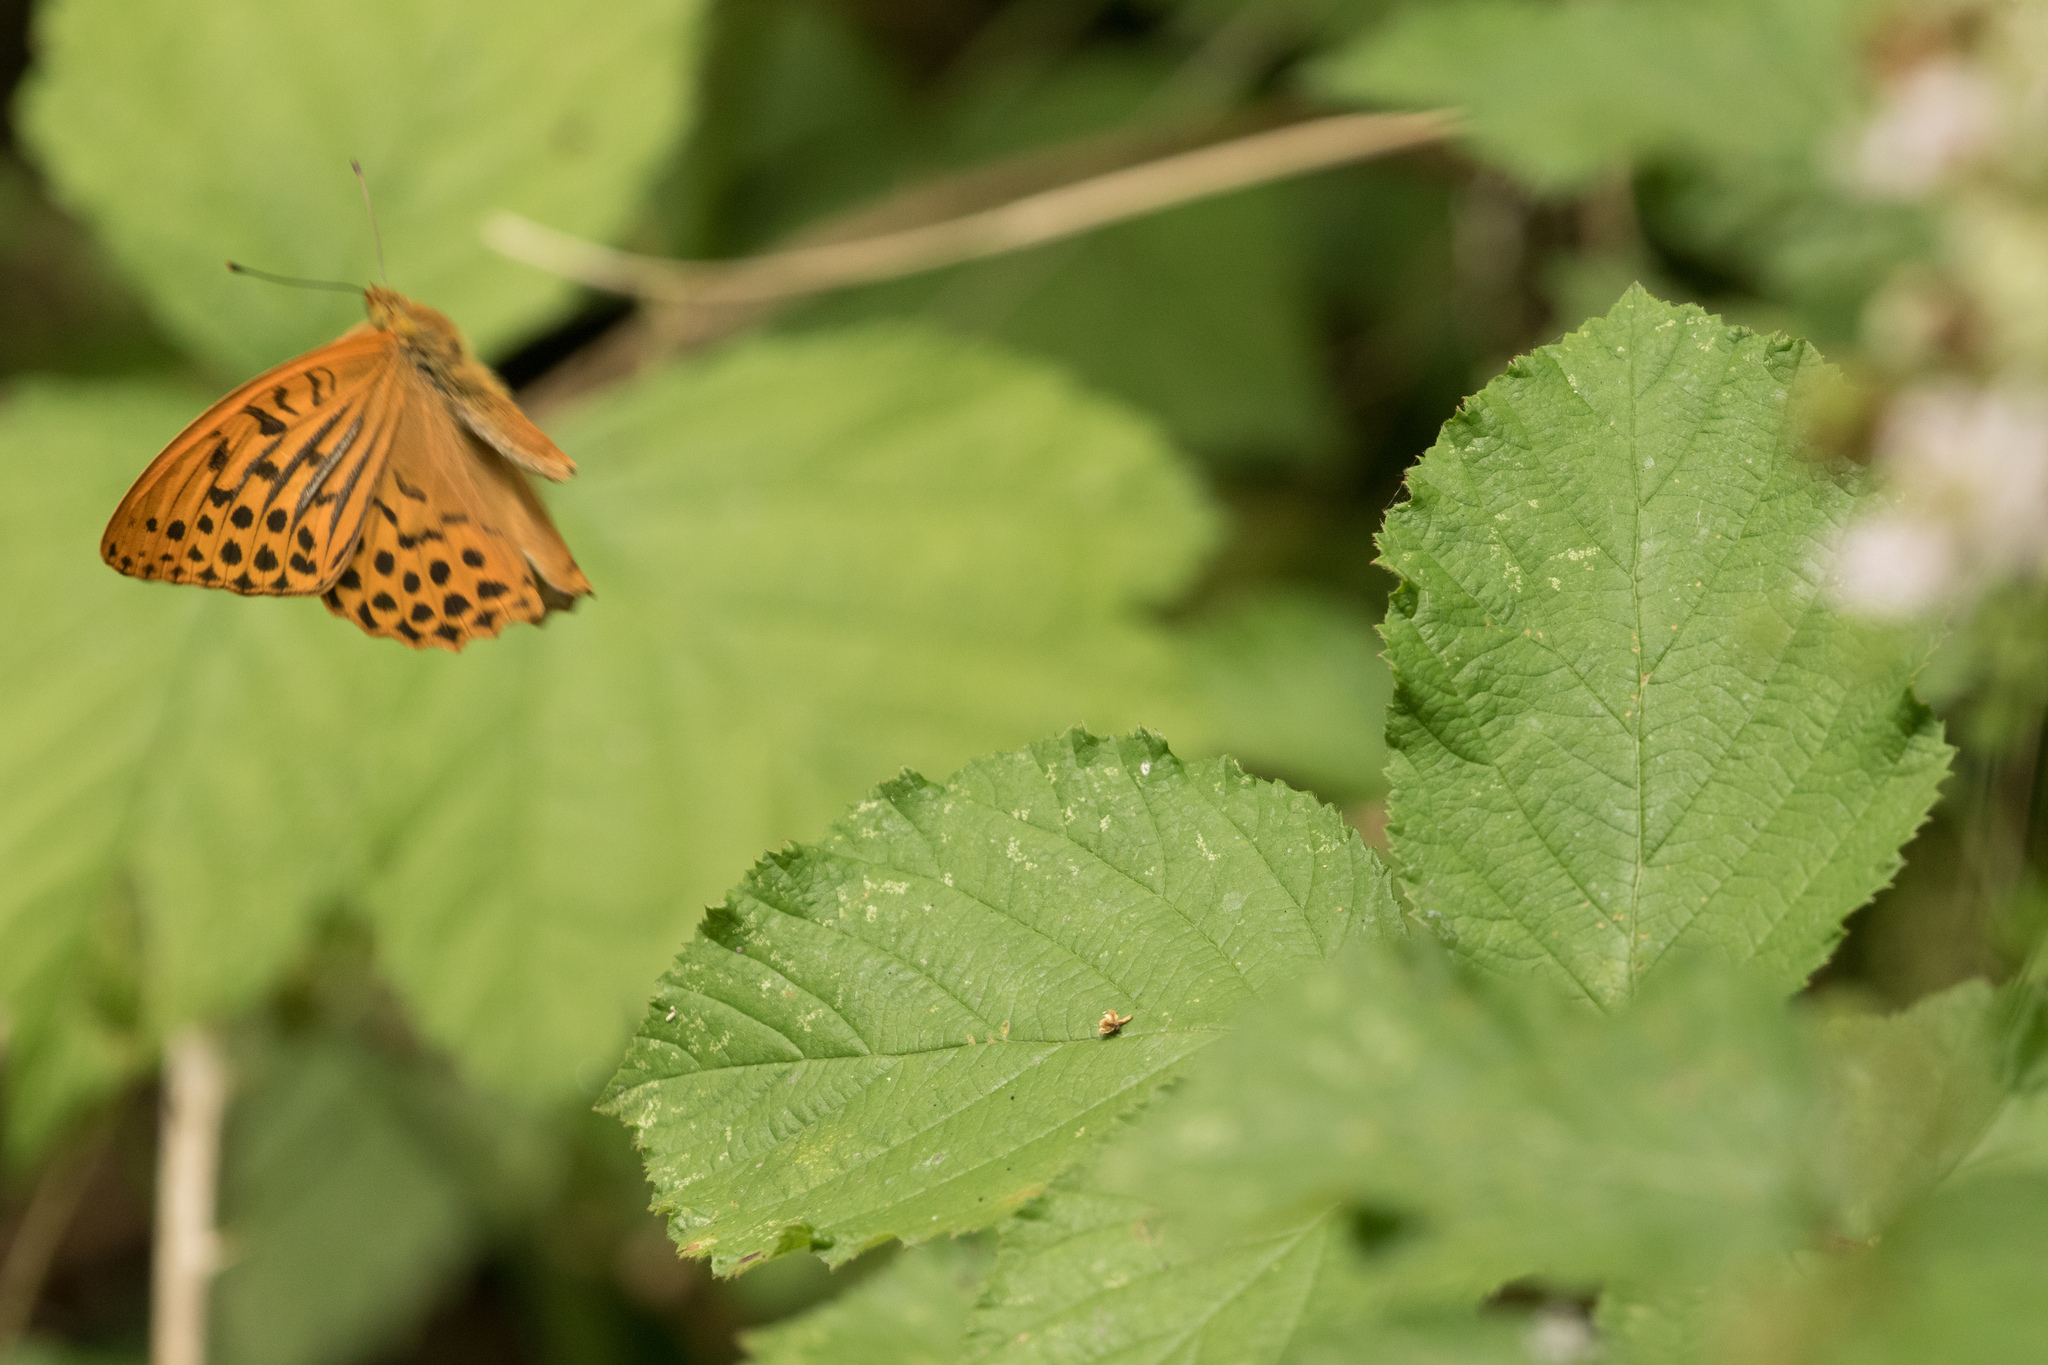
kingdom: Animalia
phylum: Arthropoda
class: Insecta
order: Lepidoptera
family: Nymphalidae
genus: Argynnis
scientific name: Argynnis paphia
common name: Silver-washed fritillary
